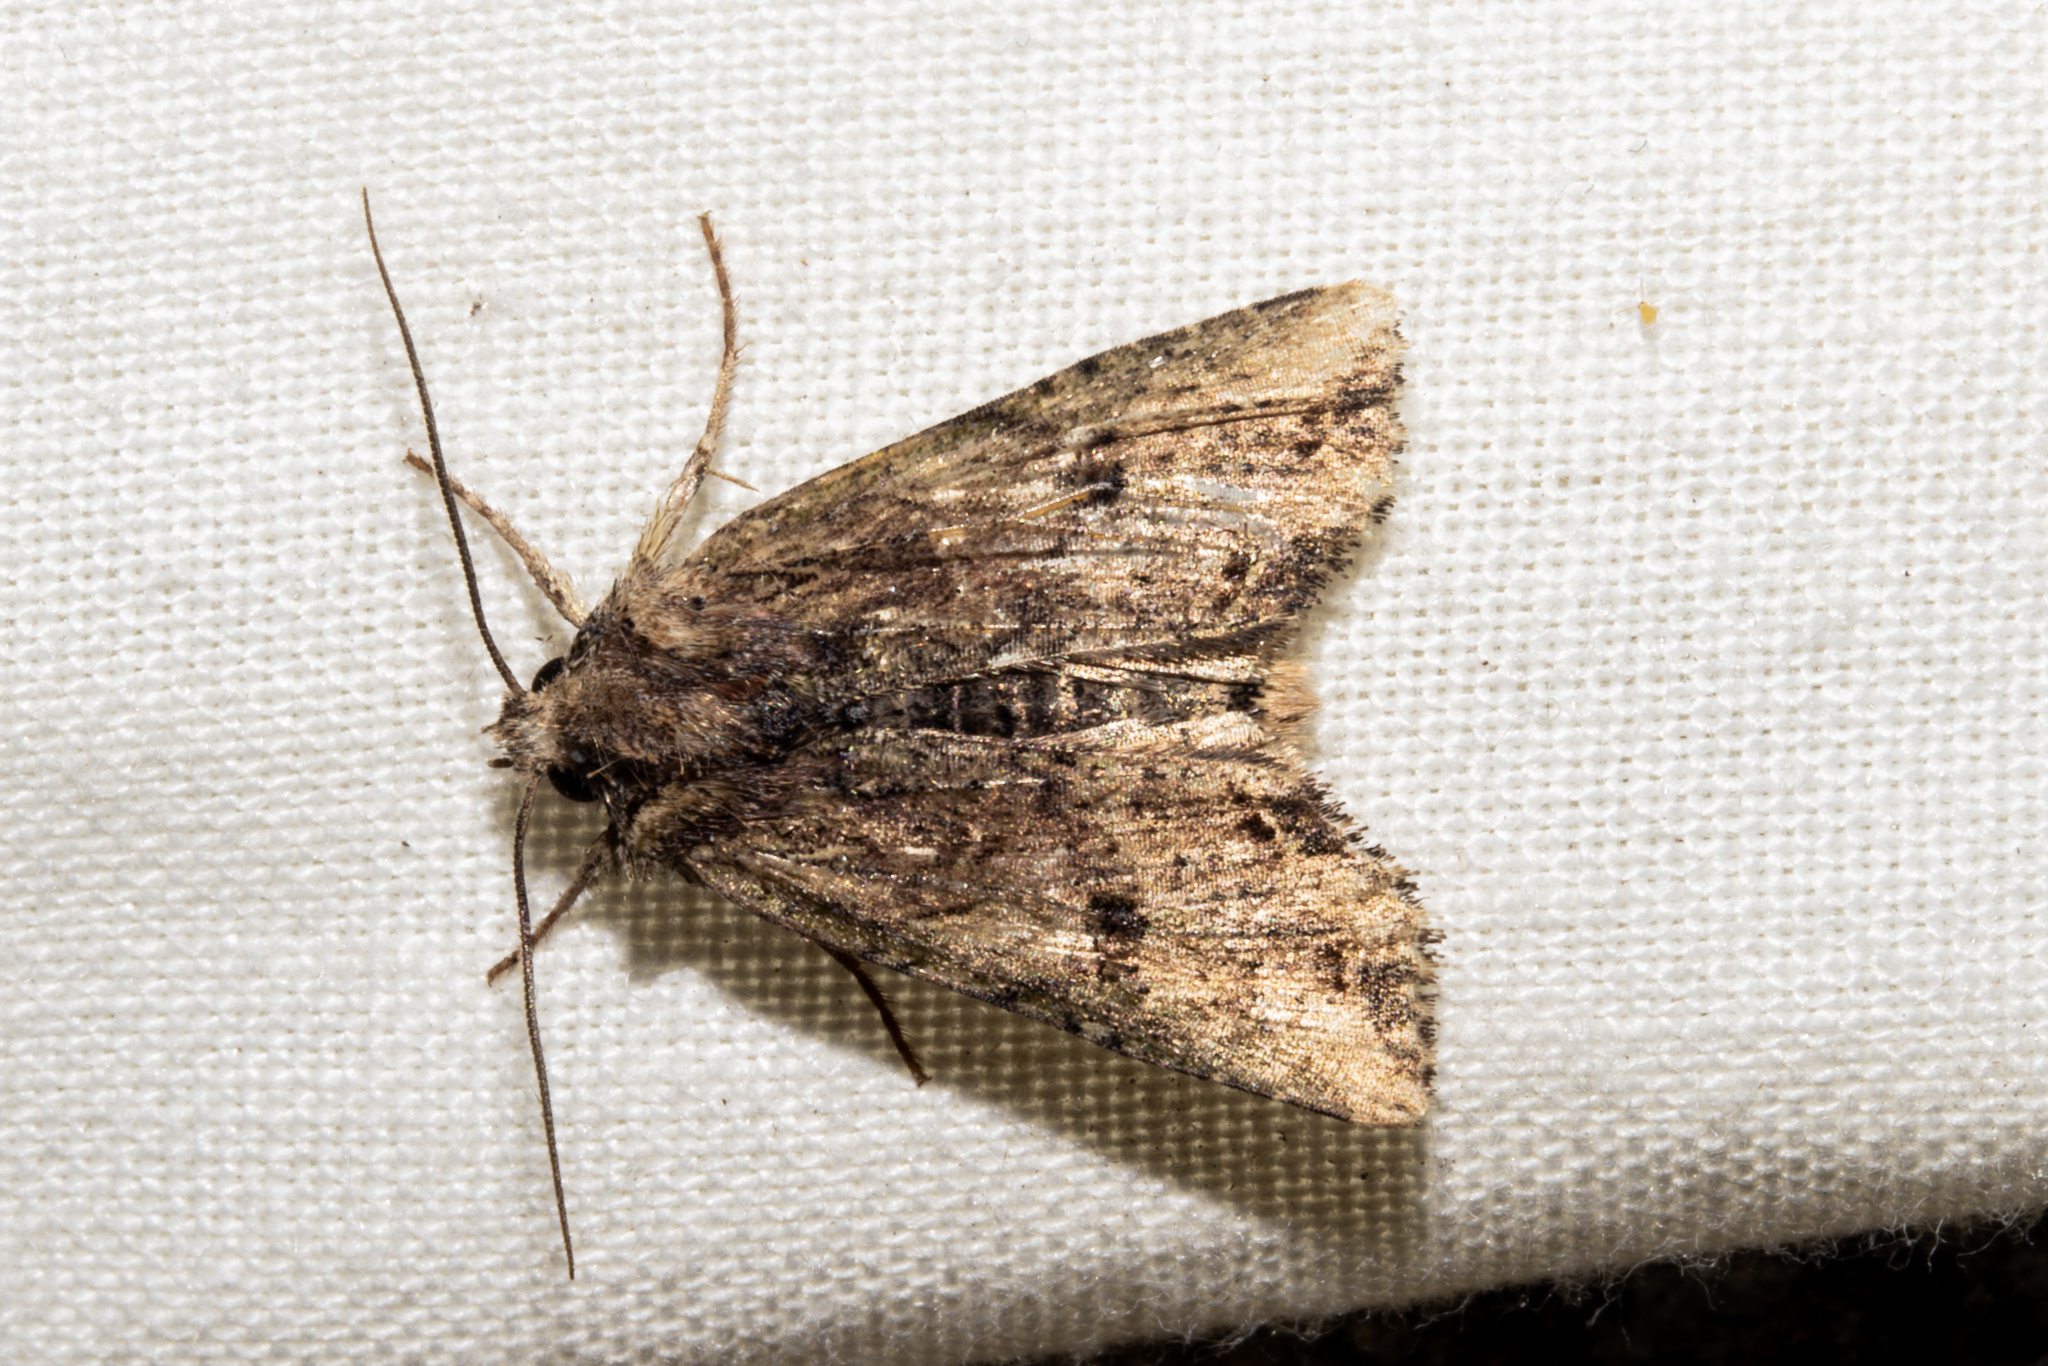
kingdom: Animalia
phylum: Arthropoda
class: Insecta
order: Lepidoptera
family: Noctuidae
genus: Meterana
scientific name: Meterana coeleno
